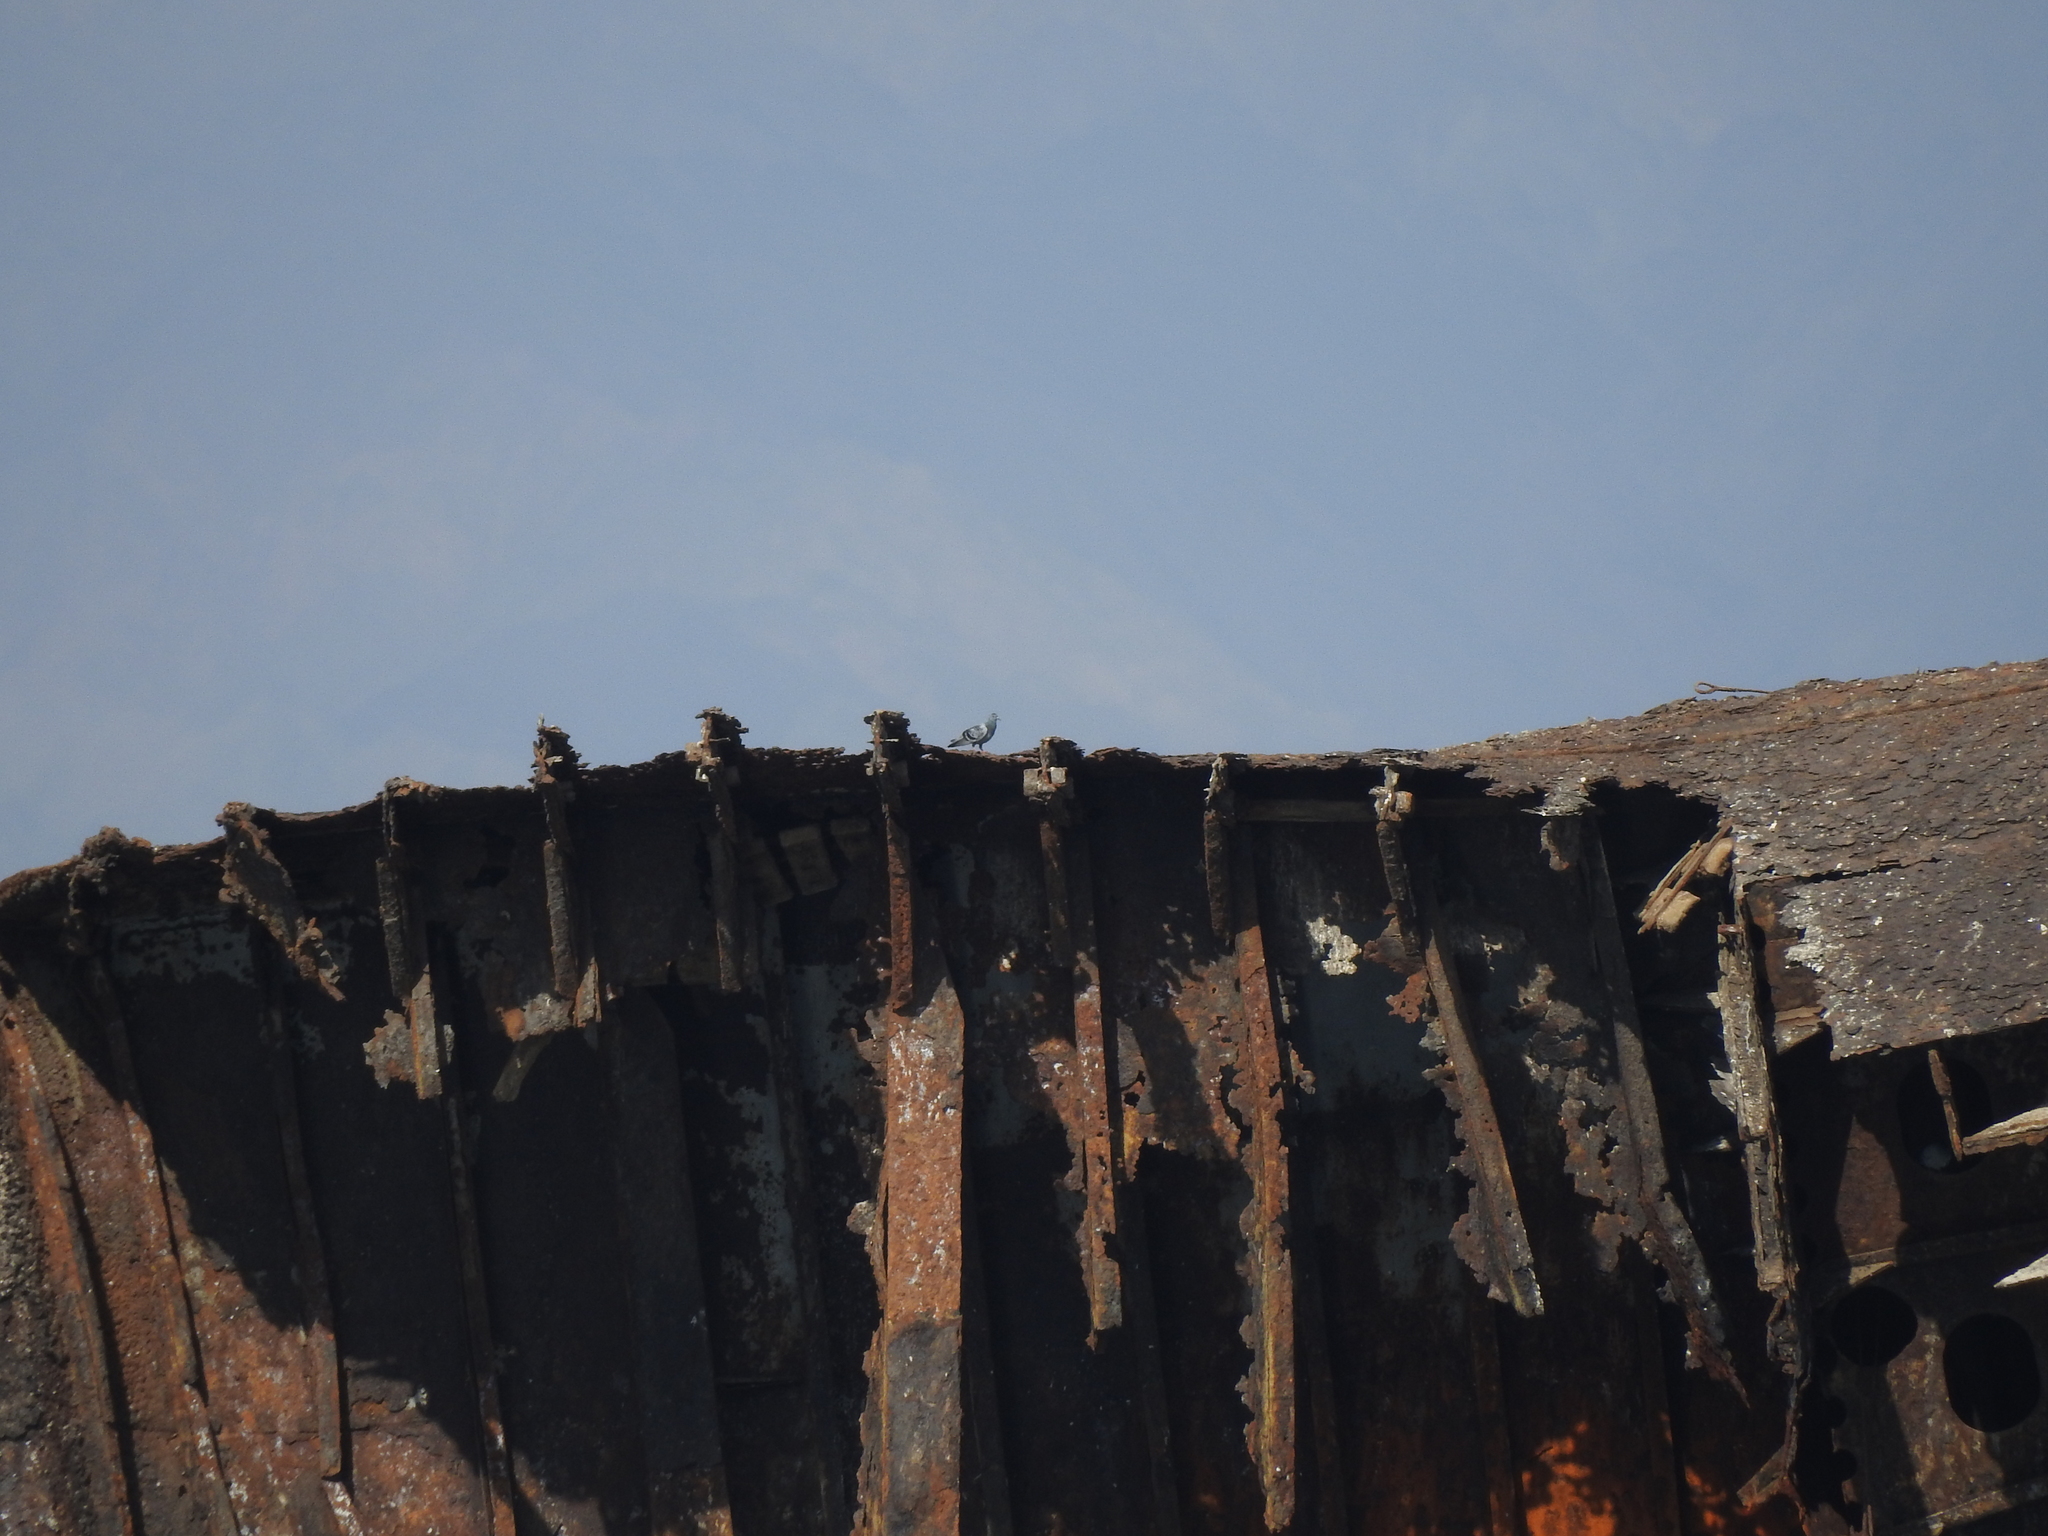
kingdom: Animalia
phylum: Chordata
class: Aves
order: Columbiformes
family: Columbidae
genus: Columba
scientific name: Columba livia
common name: Rock pigeon
